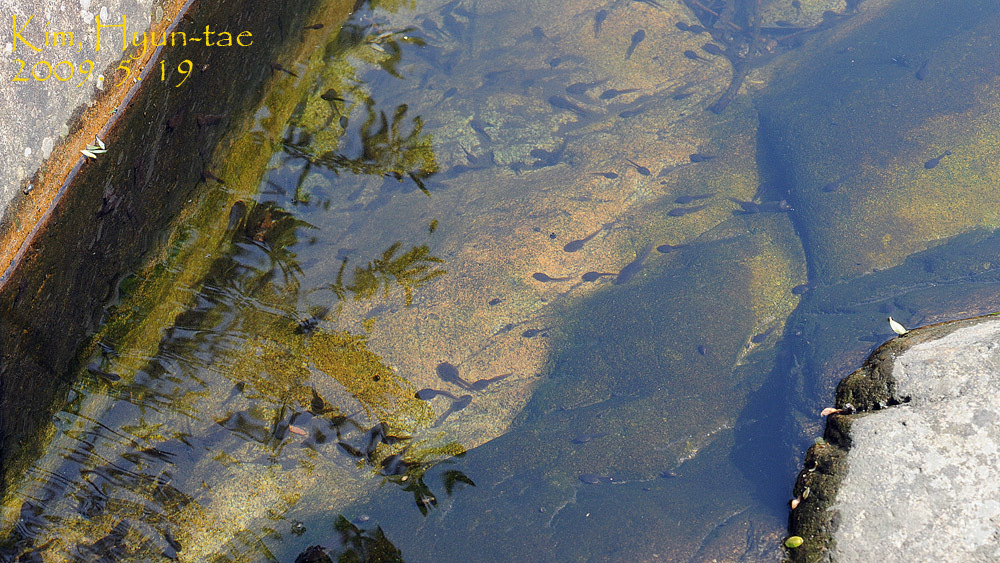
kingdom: Animalia
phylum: Chordata
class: Amphibia
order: Anura
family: Ranidae
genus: Rana
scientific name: Rana uenoi
